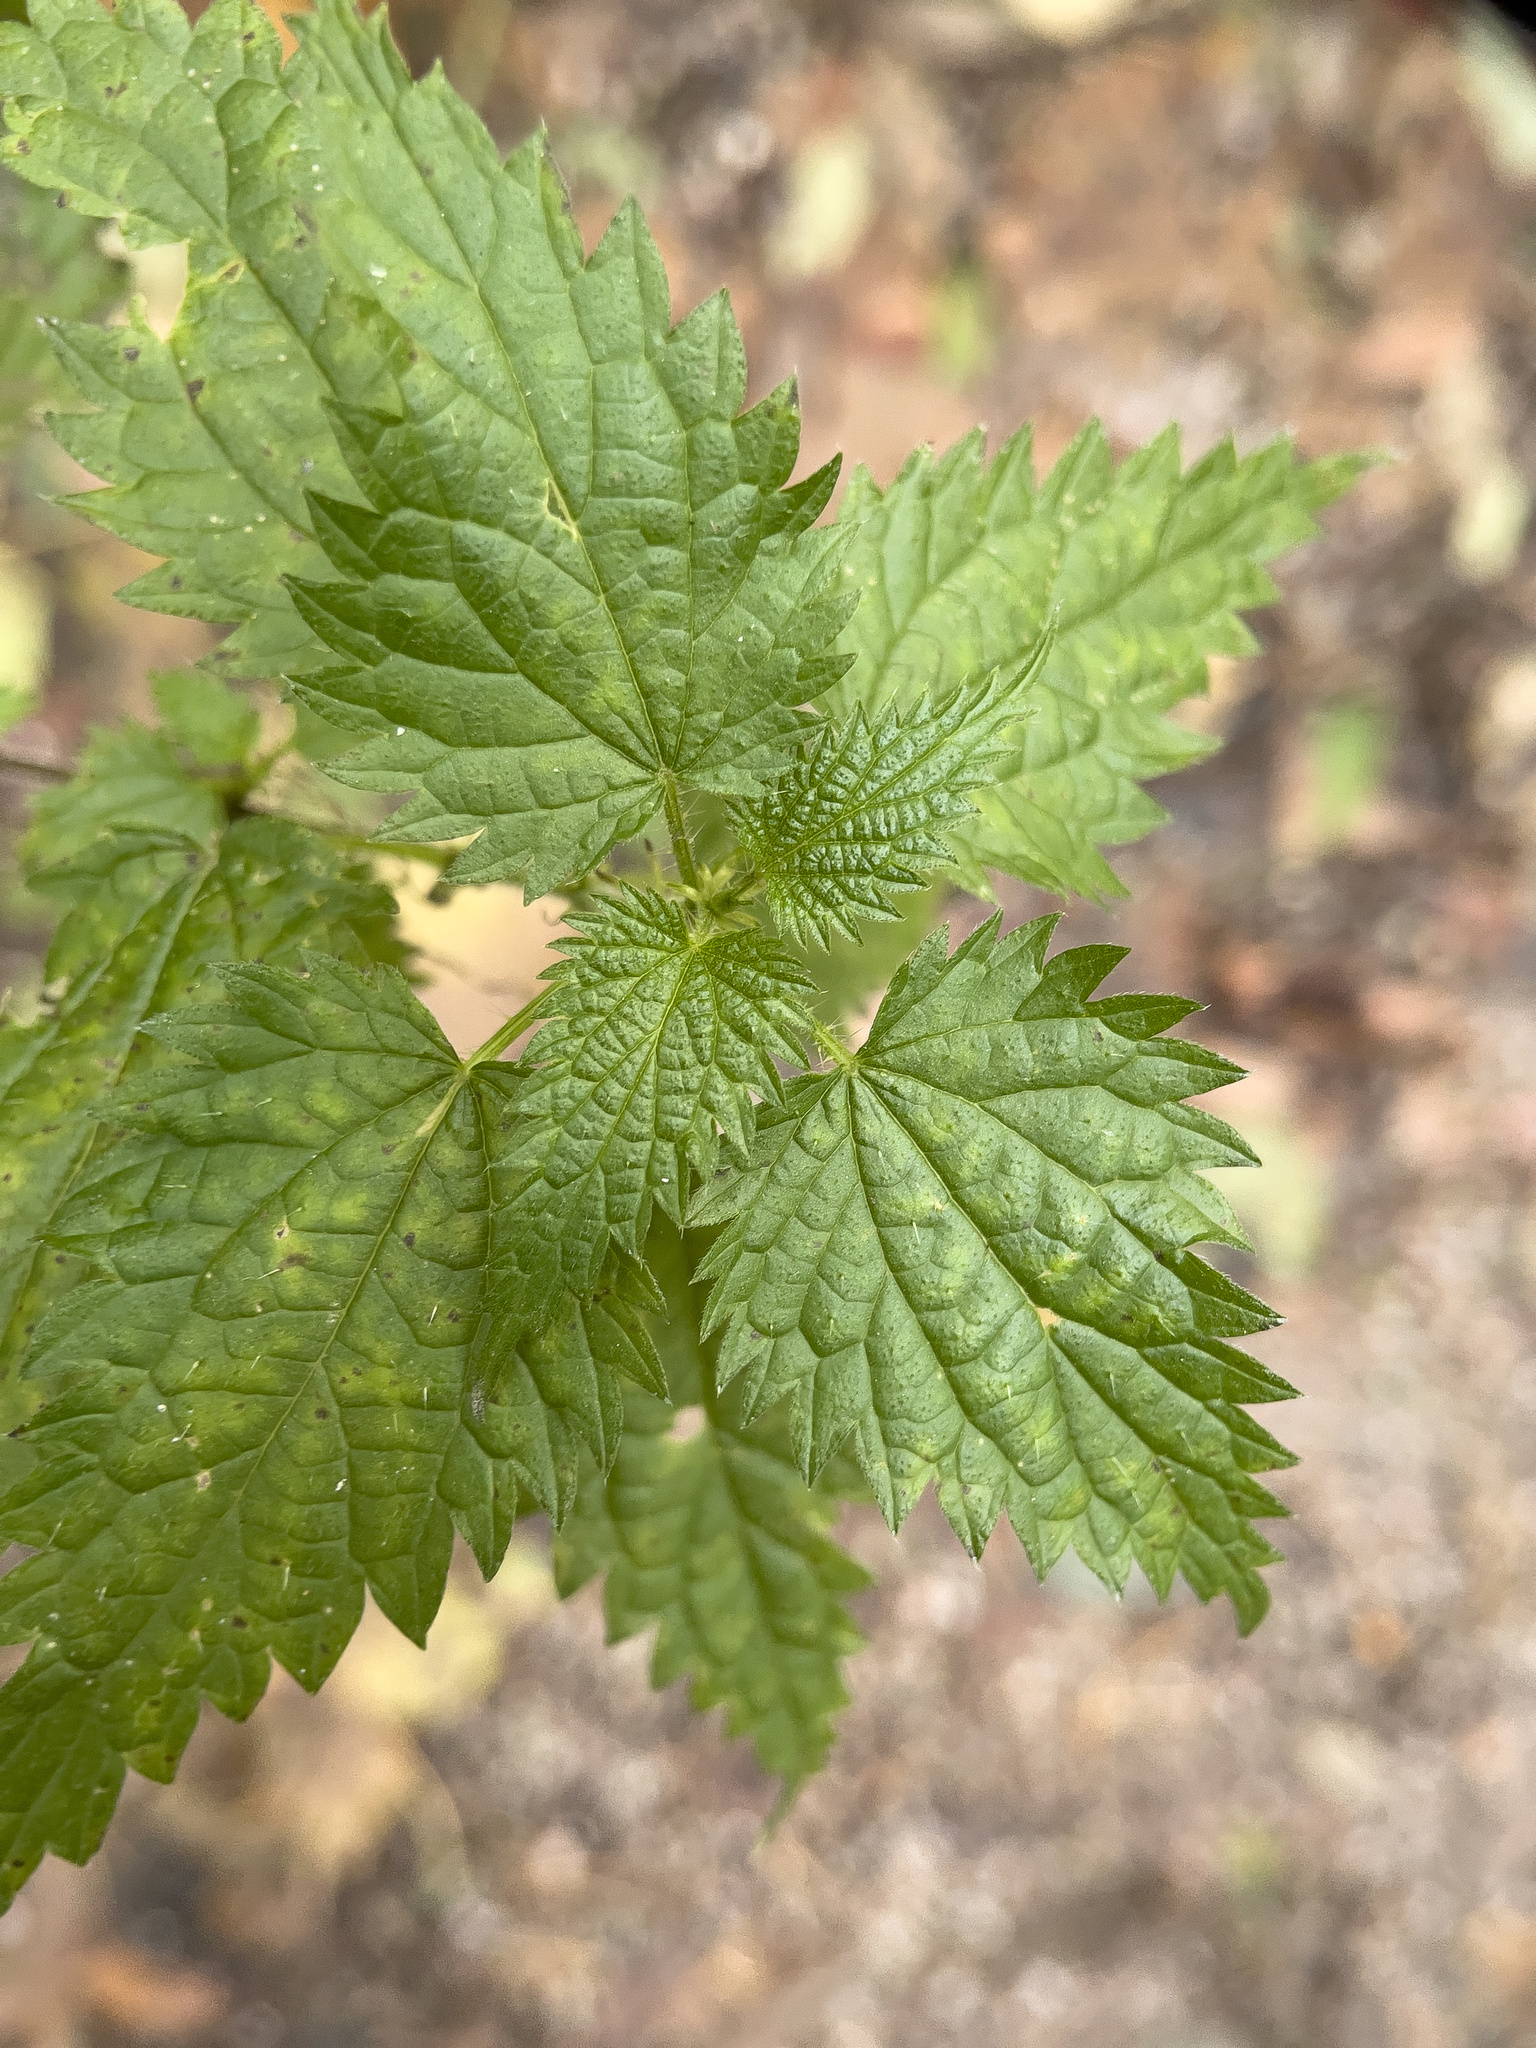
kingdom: Plantae
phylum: Tracheophyta
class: Magnoliopsida
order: Rosales
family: Urticaceae
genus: Urtica
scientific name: Urtica dioica
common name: Common nettle
